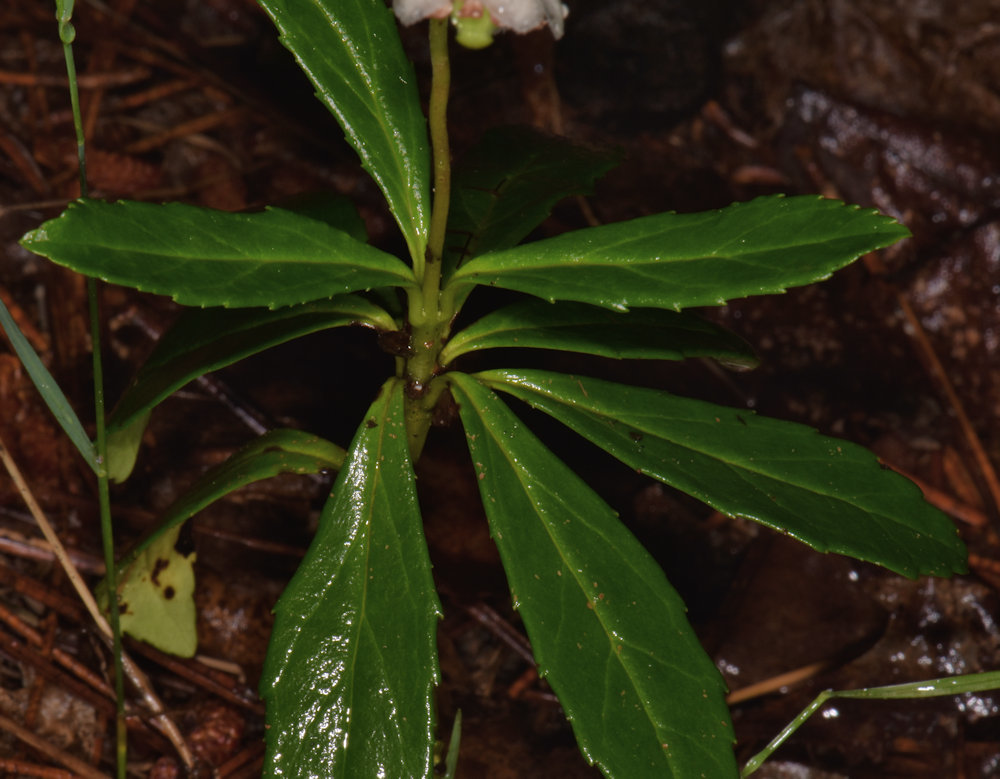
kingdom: Plantae
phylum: Tracheophyta
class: Magnoliopsida
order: Ericales
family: Ericaceae
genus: Chimaphila
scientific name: Chimaphila umbellata
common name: Pipsissewa
